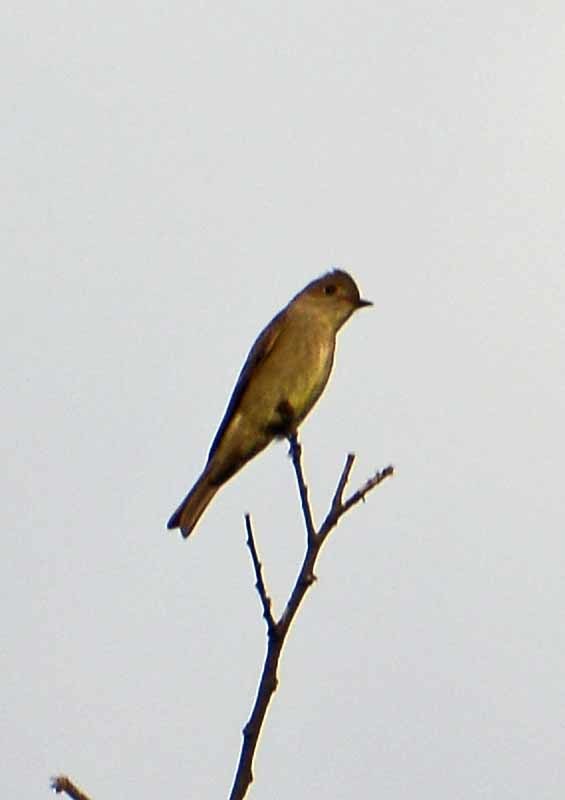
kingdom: Animalia
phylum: Chordata
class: Aves
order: Passeriformes
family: Tyrannidae
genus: Contopus
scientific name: Contopus sordidulus
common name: Western wood-pewee
